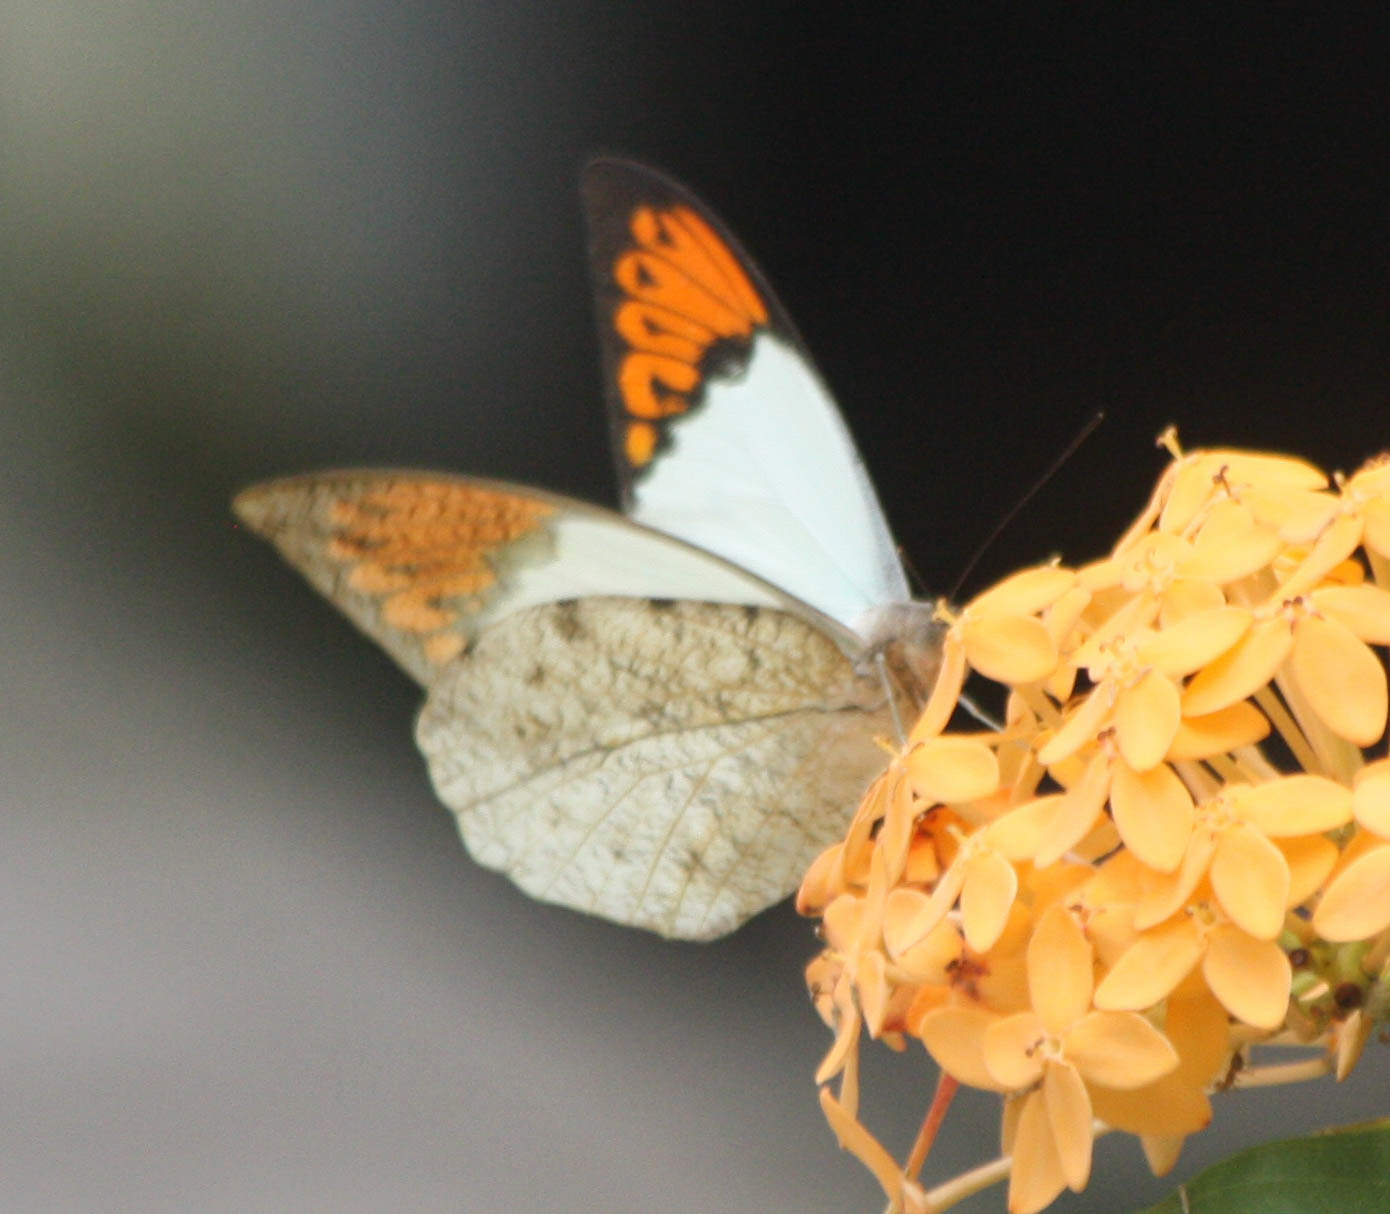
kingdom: Animalia
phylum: Arthropoda
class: Insecta
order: Lepidoptera
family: Pieridae
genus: Hebomoia
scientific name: Hebomoia glaucippe
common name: Great orange tip
